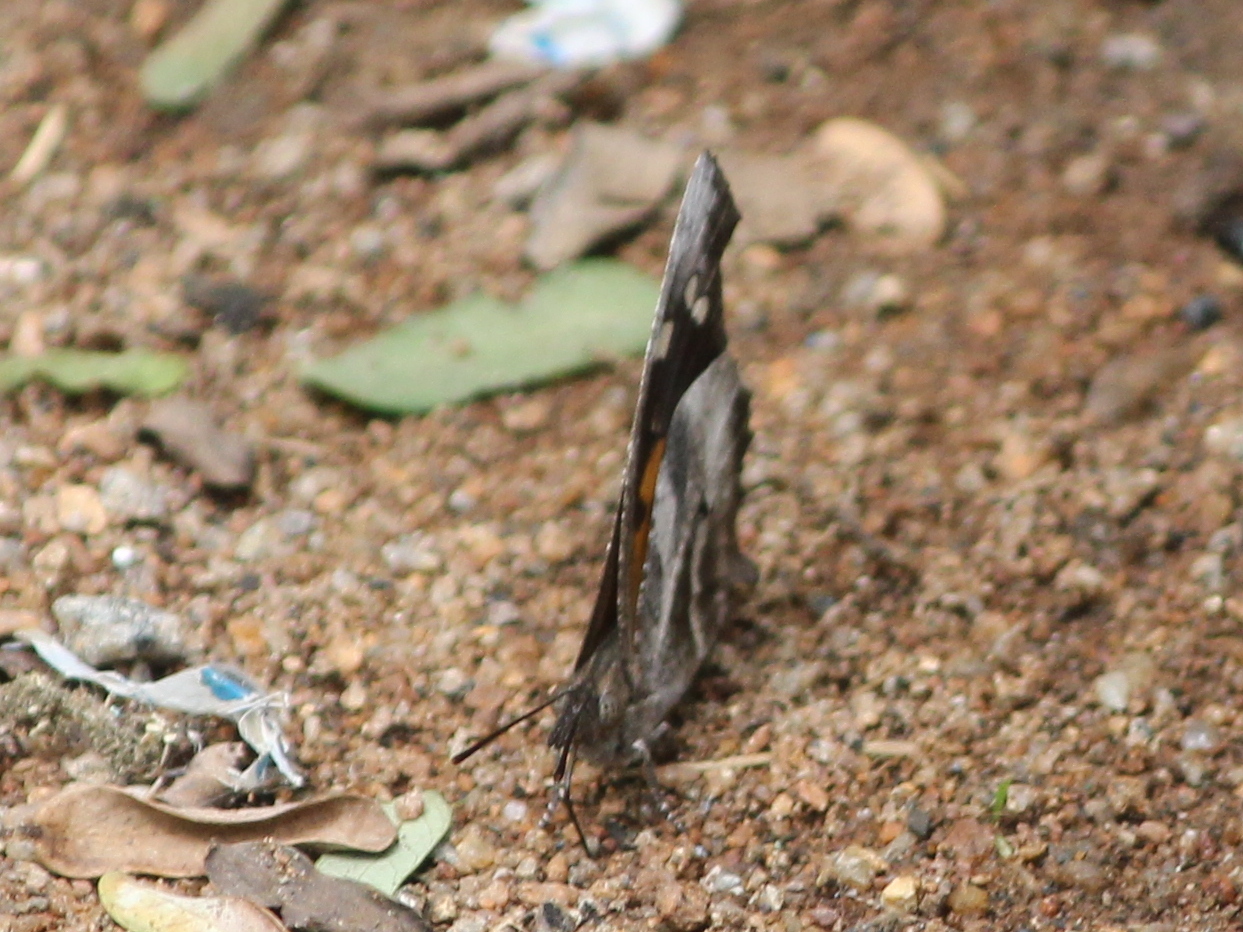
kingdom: Animalia
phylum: Arthropoda
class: Insecta
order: Lepidoptera
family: Nymphalidae
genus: Libythea
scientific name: Libythea laius
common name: African snout
